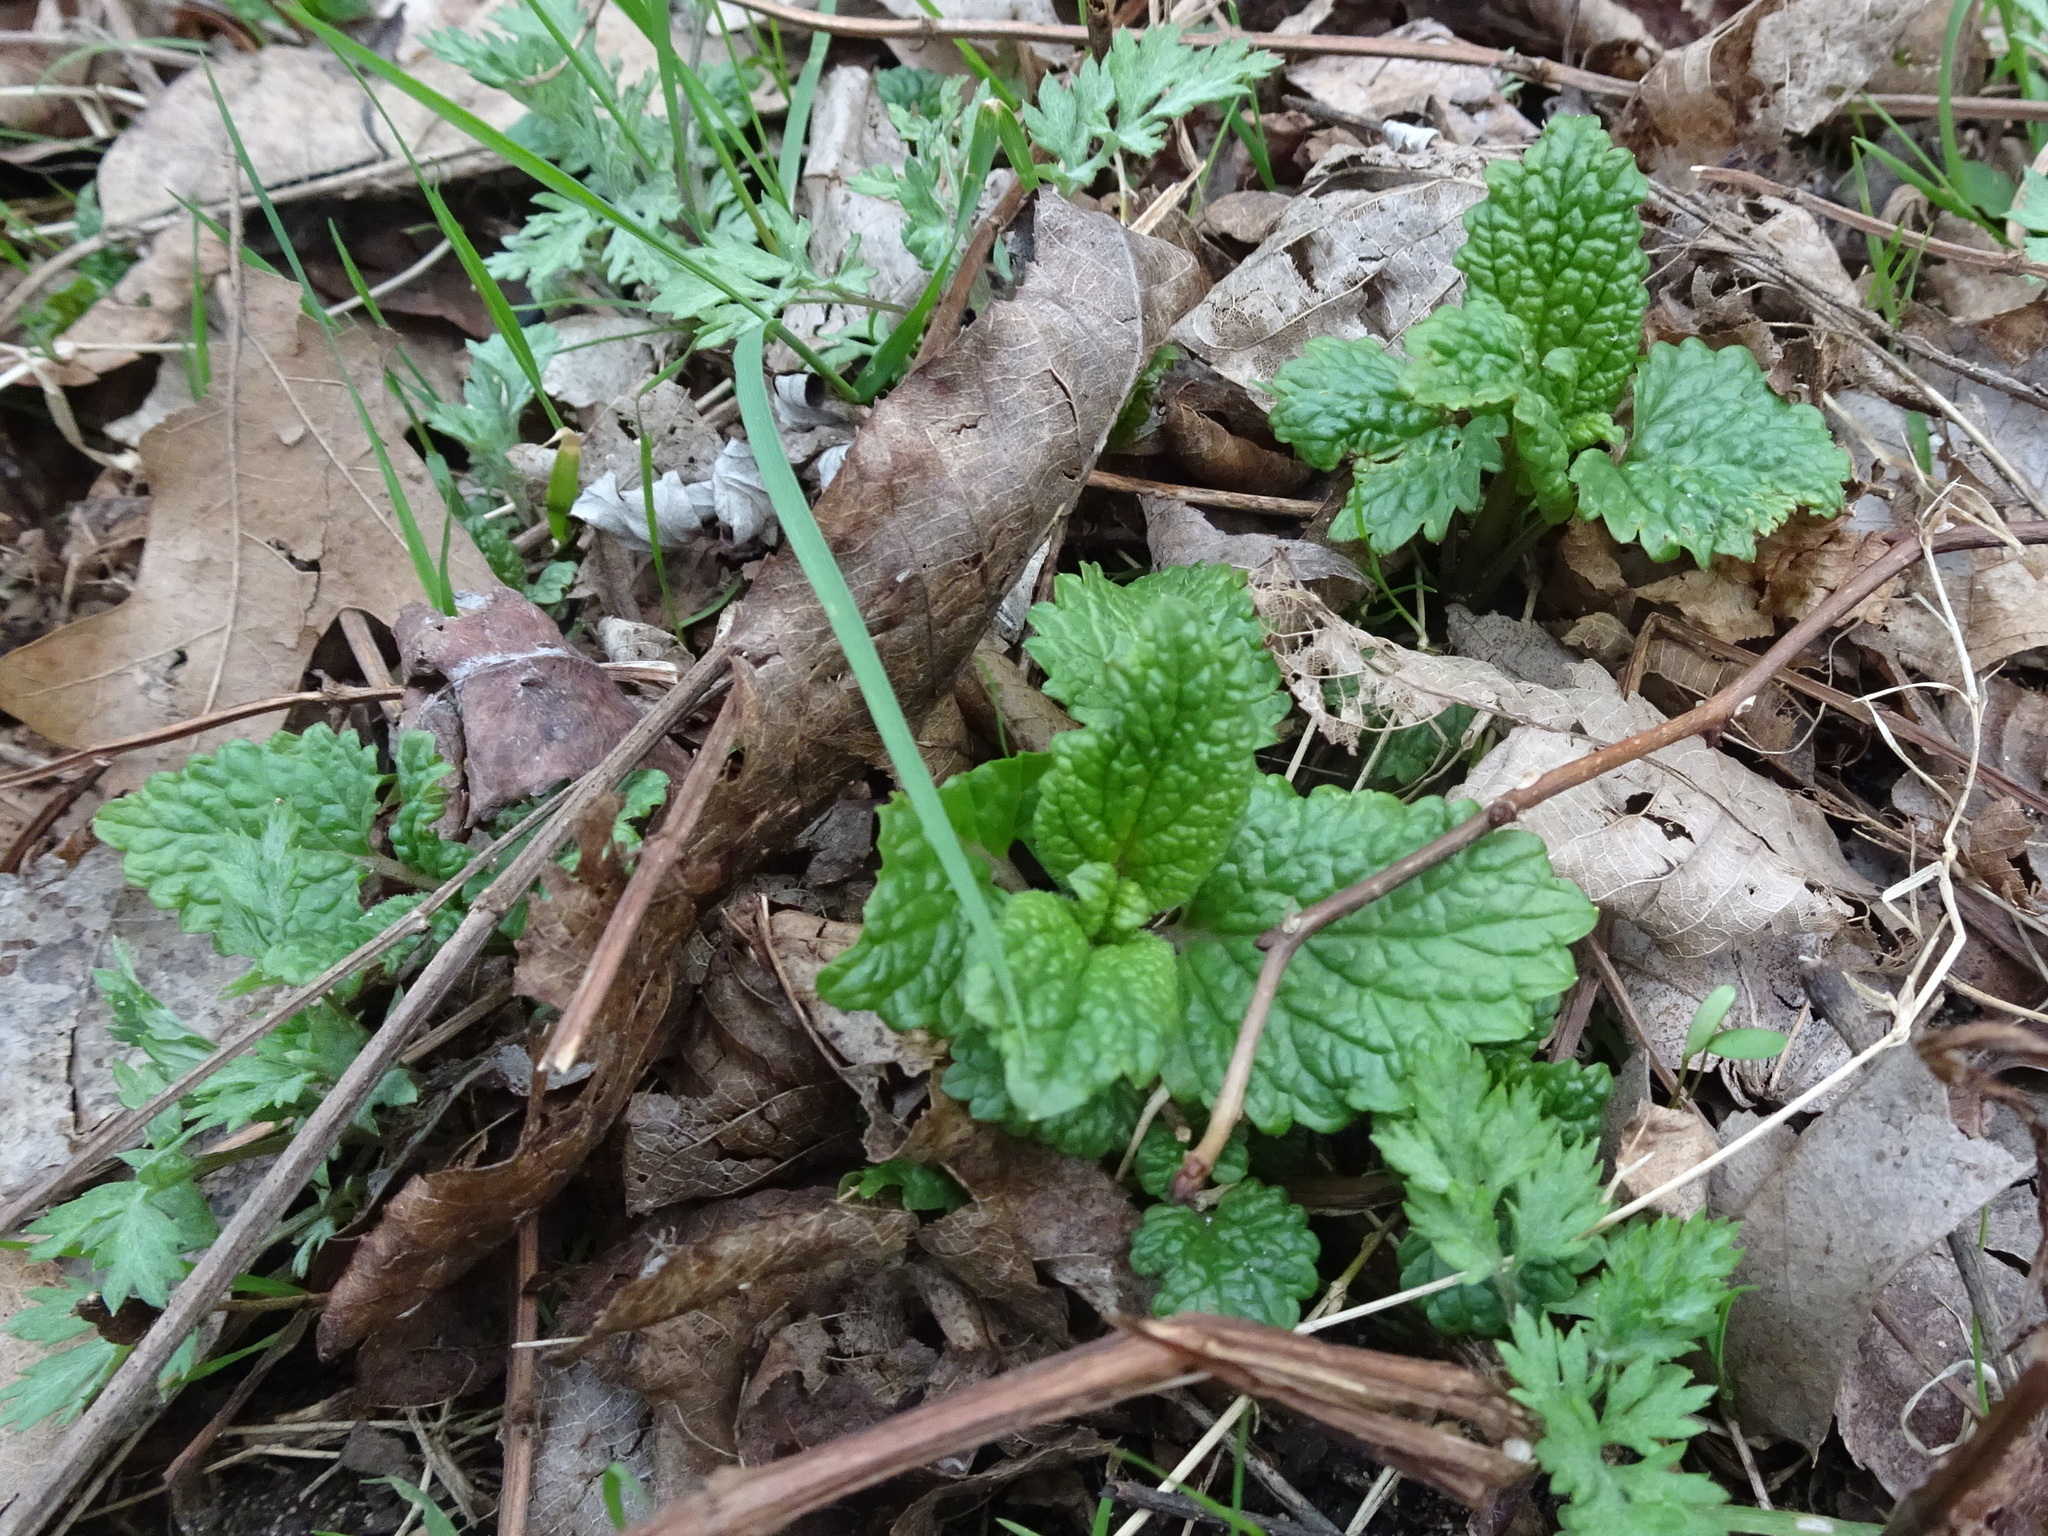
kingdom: Plantae
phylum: Tracheophyta
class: Magnoliopsida
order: Lamiales
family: Lamiaceae
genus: Melissa
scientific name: Melissa officinalis
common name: Balm
